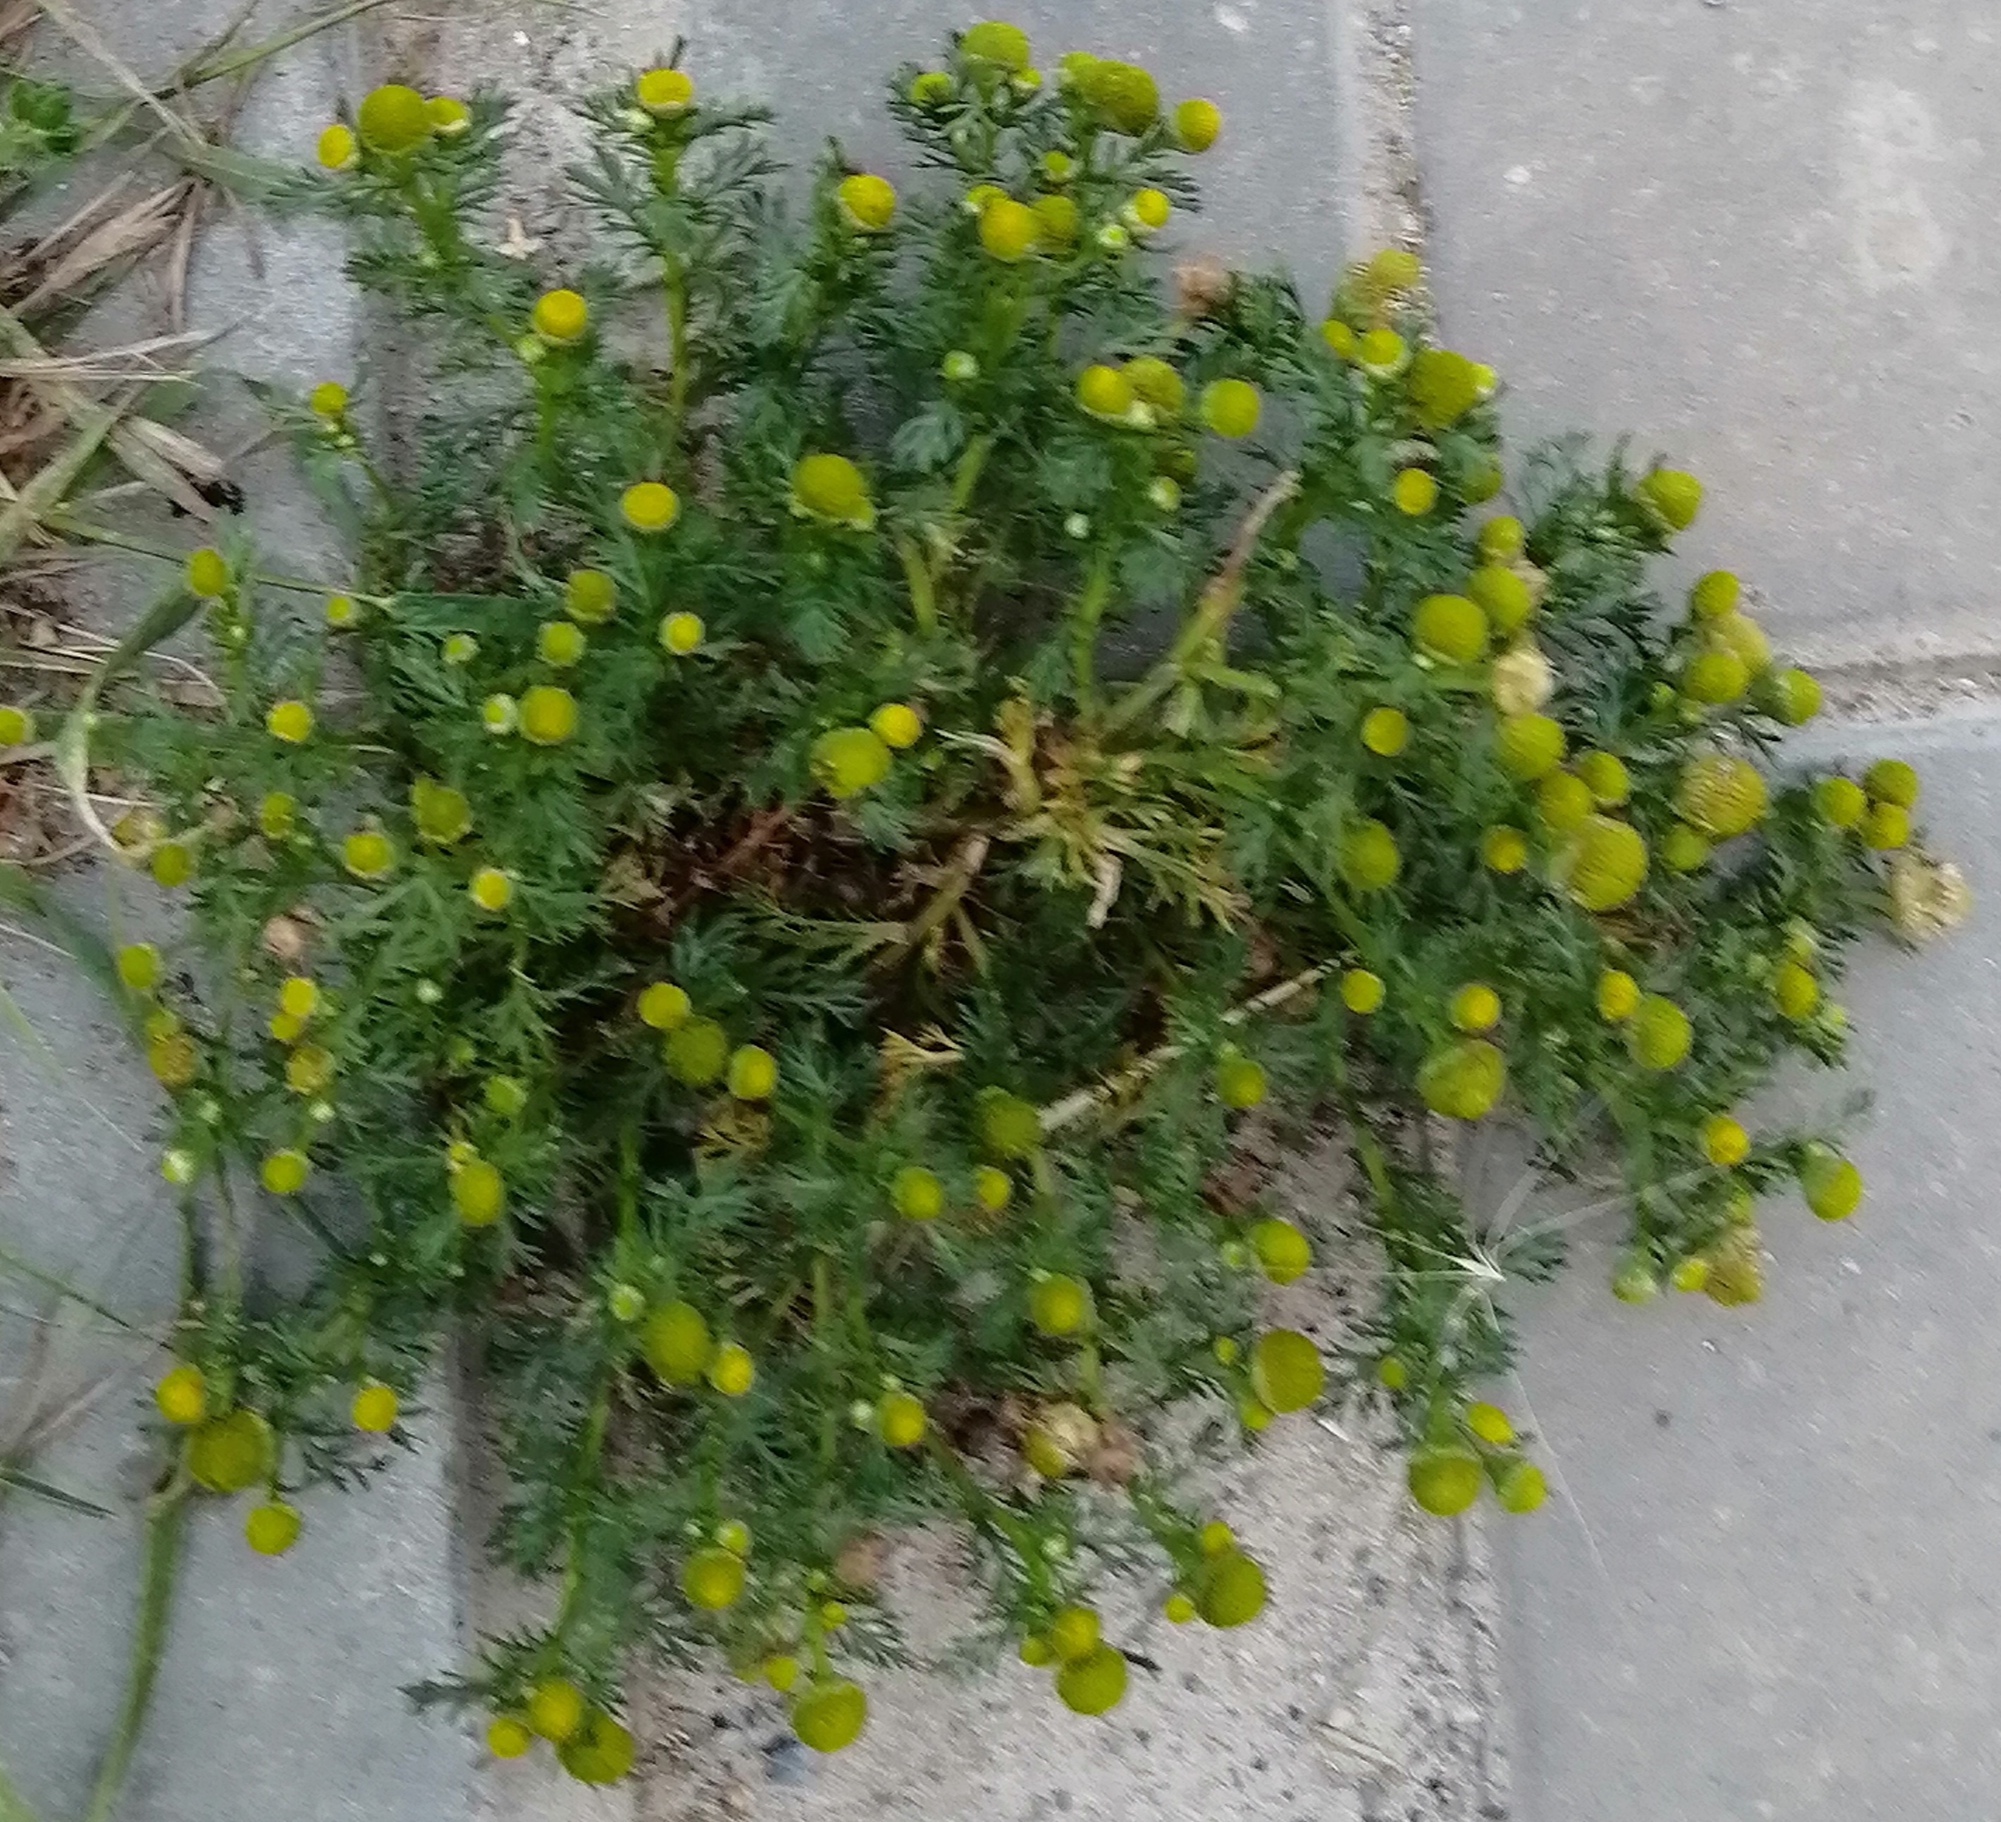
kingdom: Plantae
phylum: Tracheophyta
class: Magnoliopsida
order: Asterales
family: Asteraceae
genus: Matricaria
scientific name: Matricaria discoidea
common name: Disc mayweed
